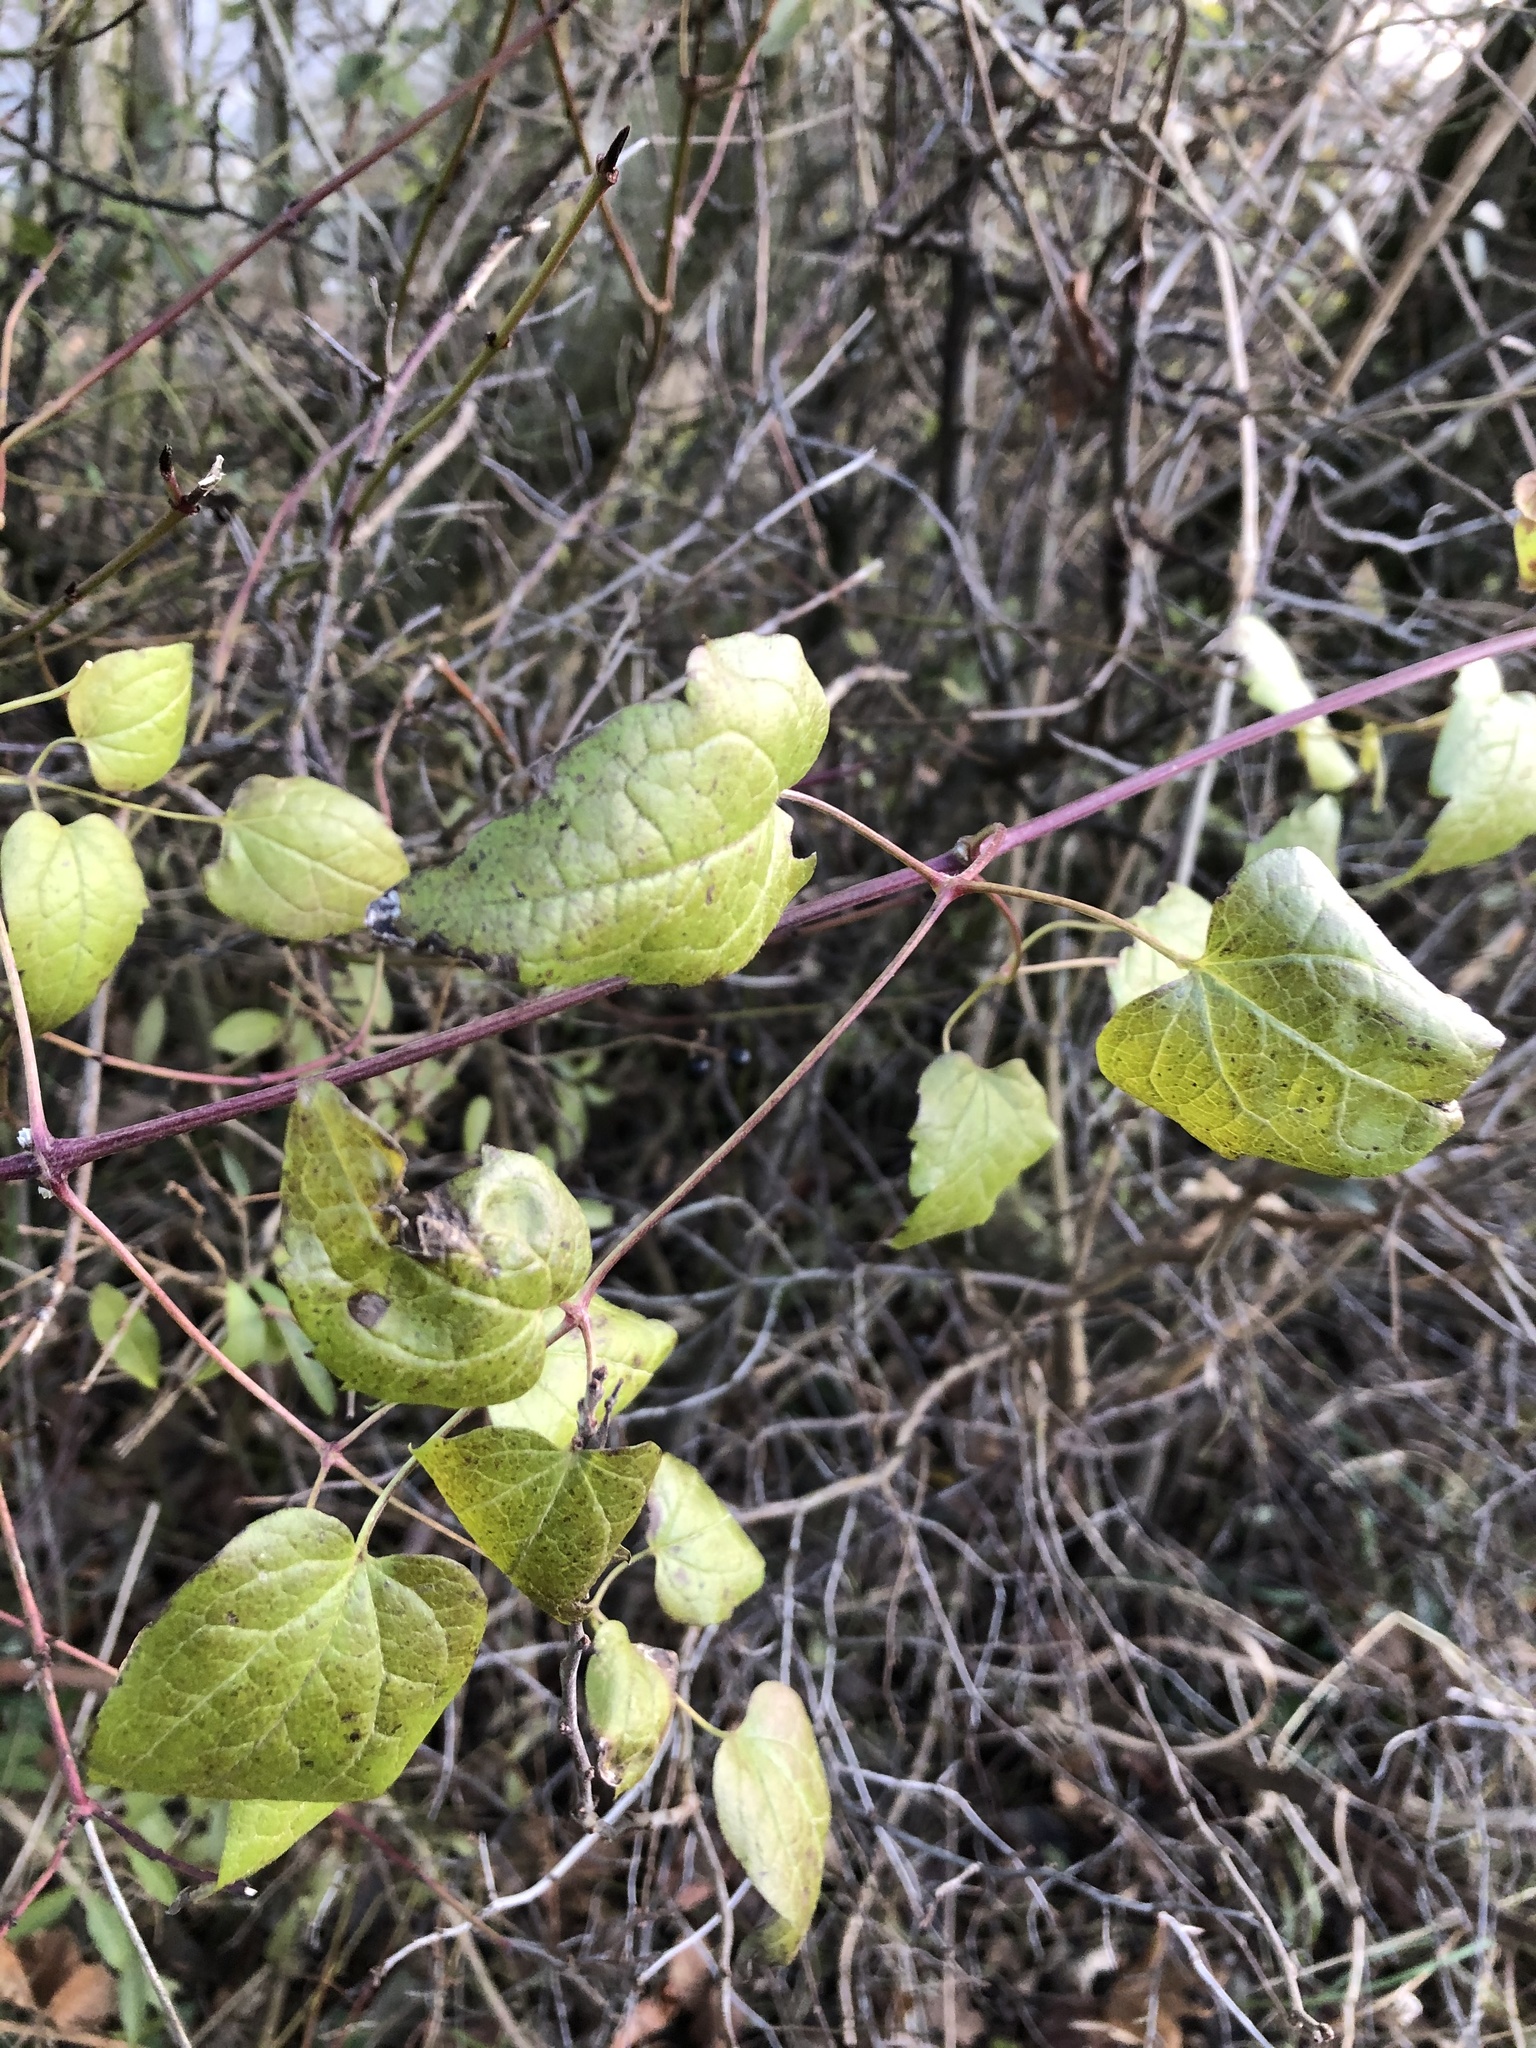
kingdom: Plantae
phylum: Tracheophyta
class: Magnoliopsida
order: Ranunculales
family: Ranunculaceae
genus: Clematis
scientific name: Clematis vitalba
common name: Evergreen clematis
